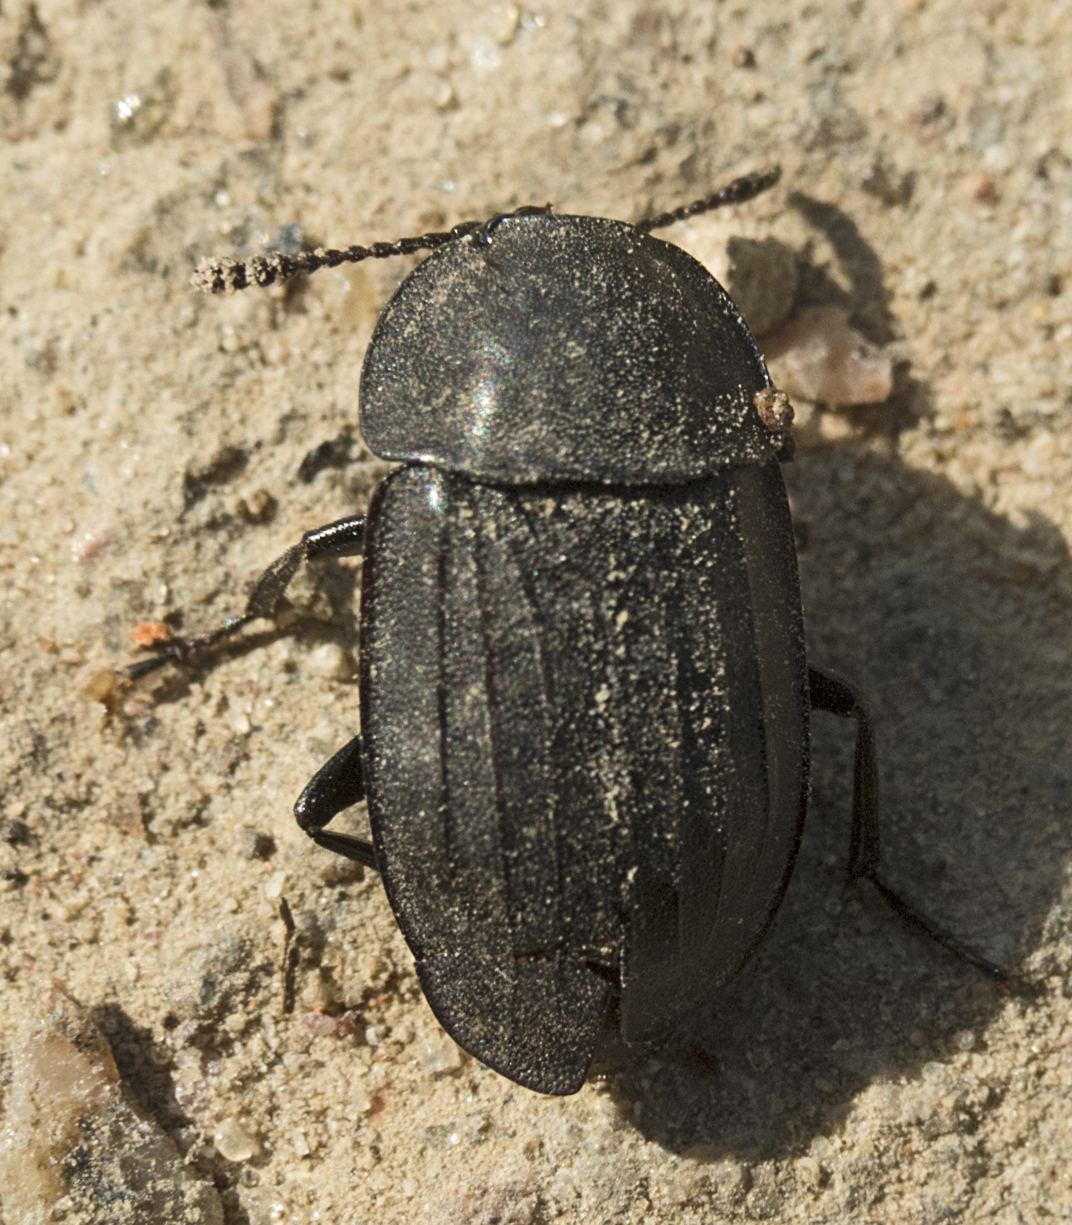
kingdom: Animalia
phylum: Arthropoda
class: Insecta
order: Coleoptera
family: Staphylinidae
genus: Silpha
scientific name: Silpha tristis
